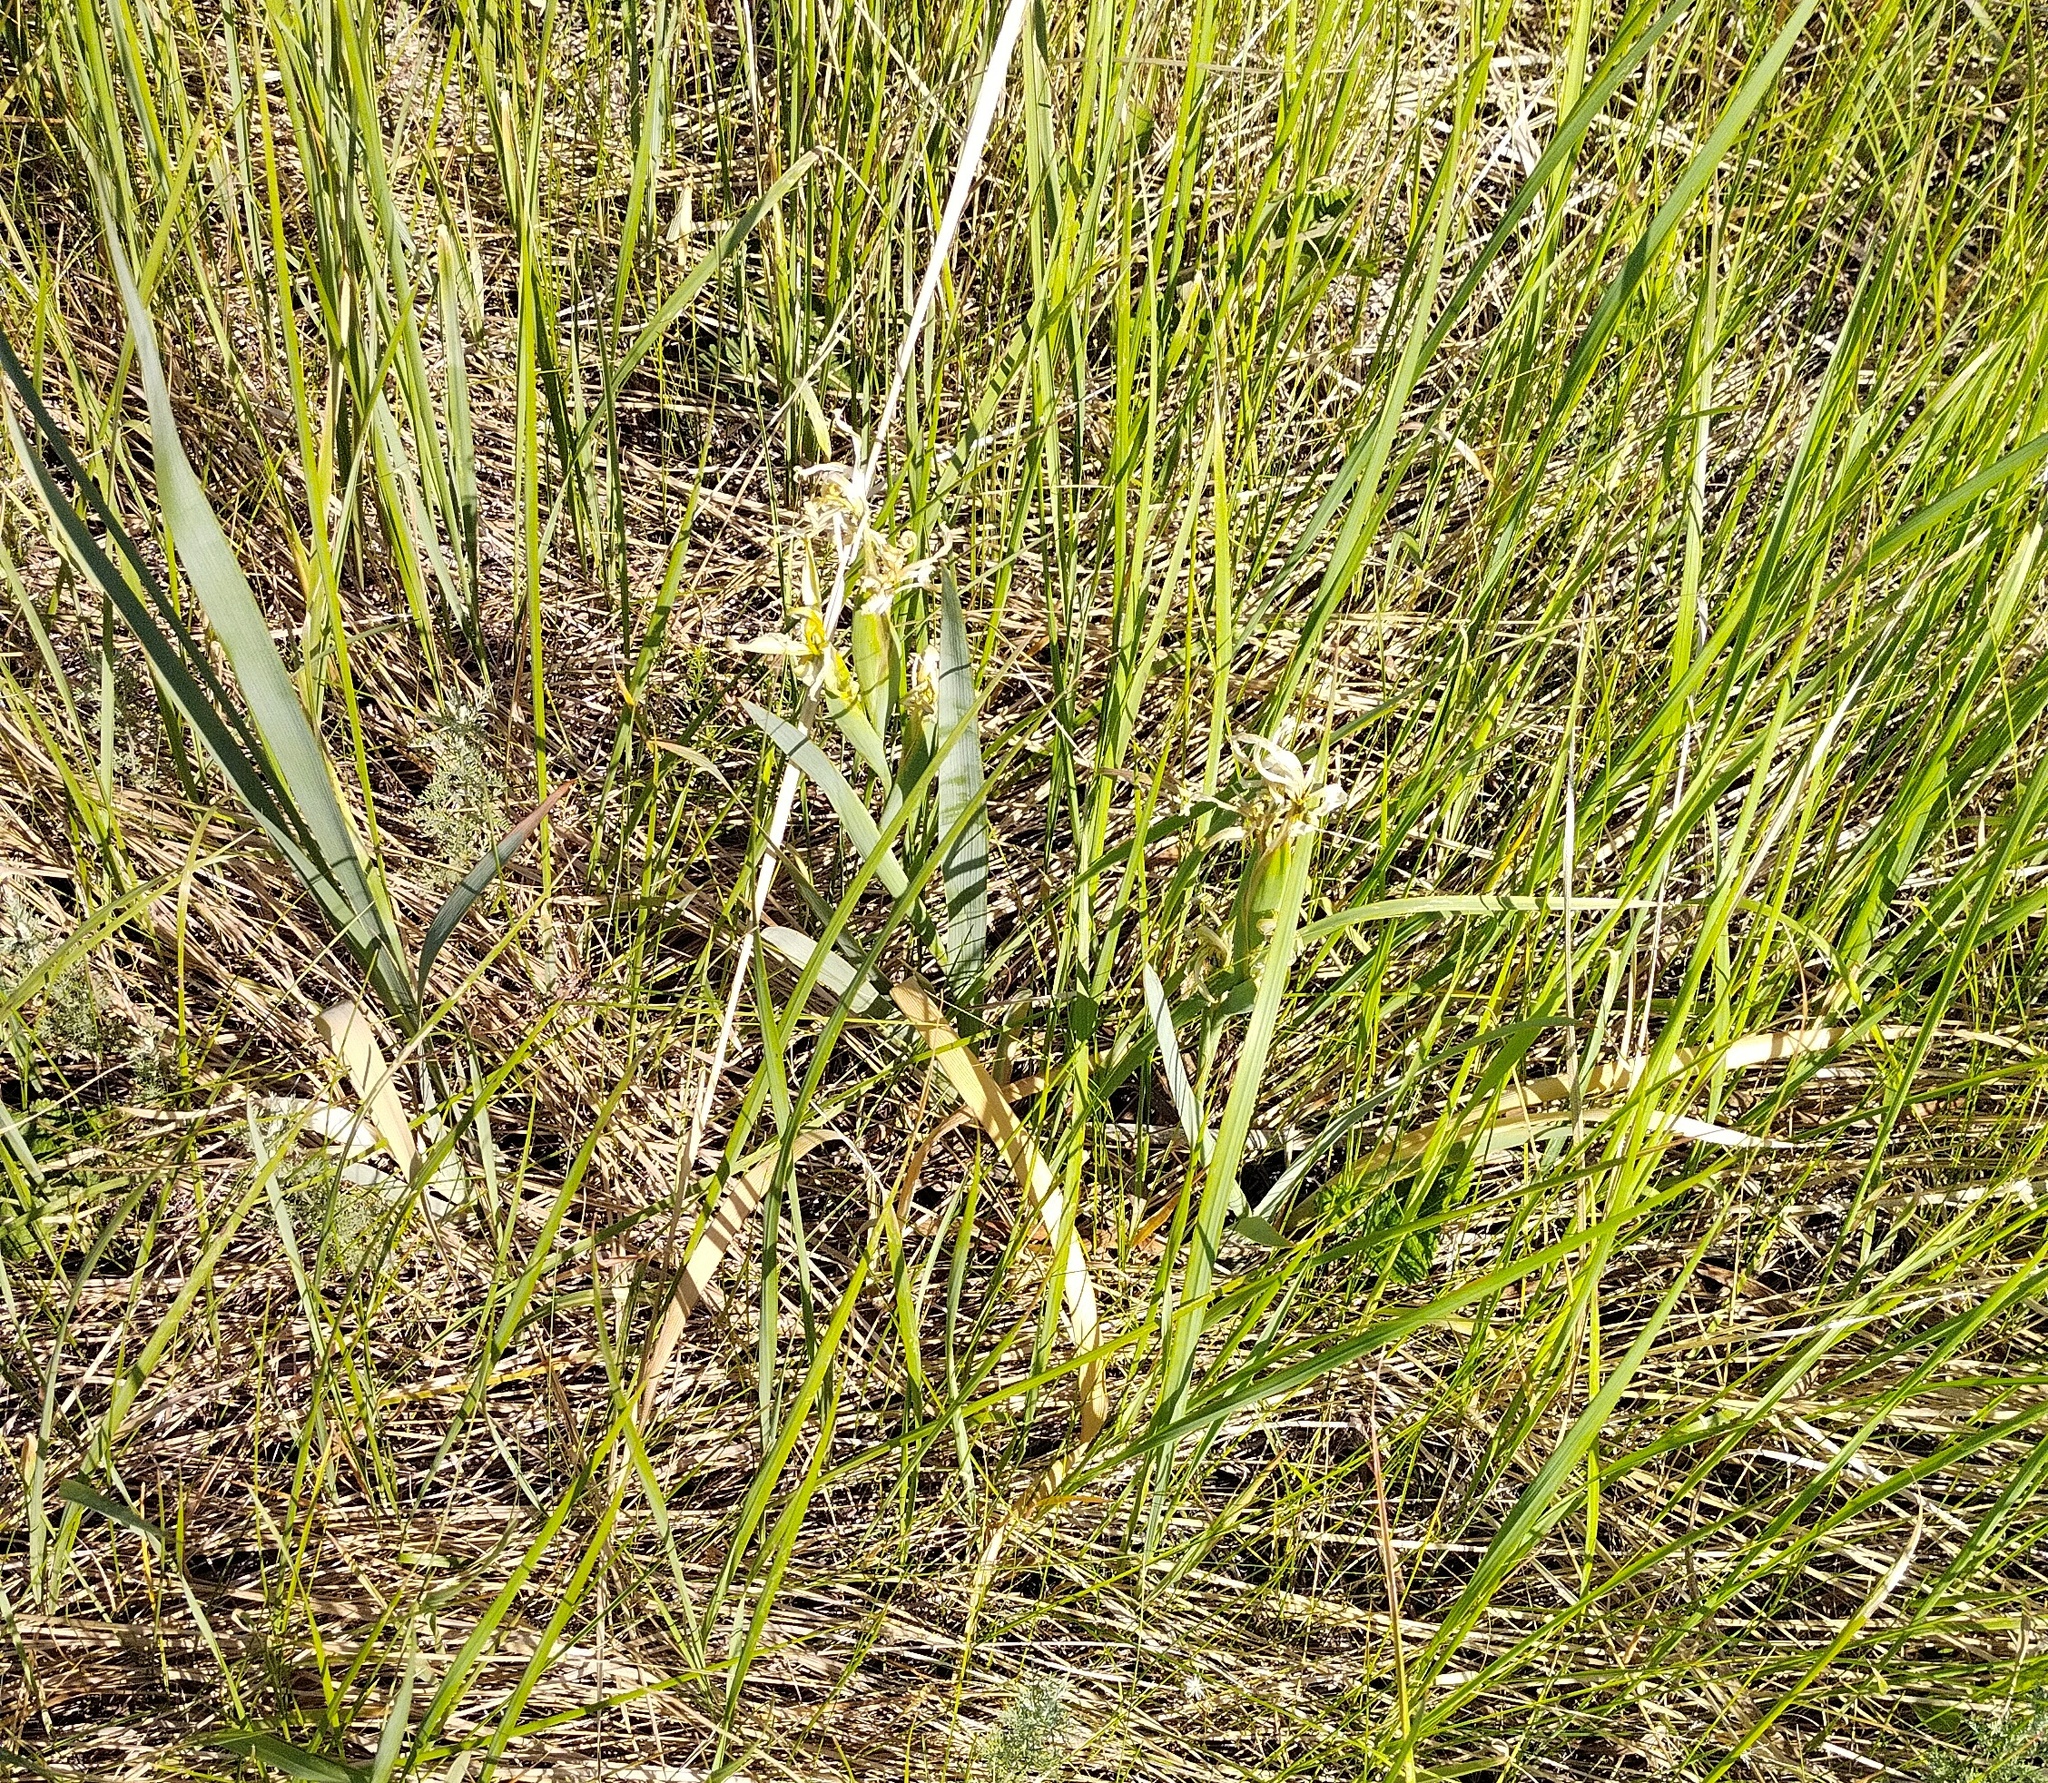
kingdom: Plantae
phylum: Tracheophyta
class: Liliopsida
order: Asparagales
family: Iridaceae
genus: Iris
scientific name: Iris halophila
